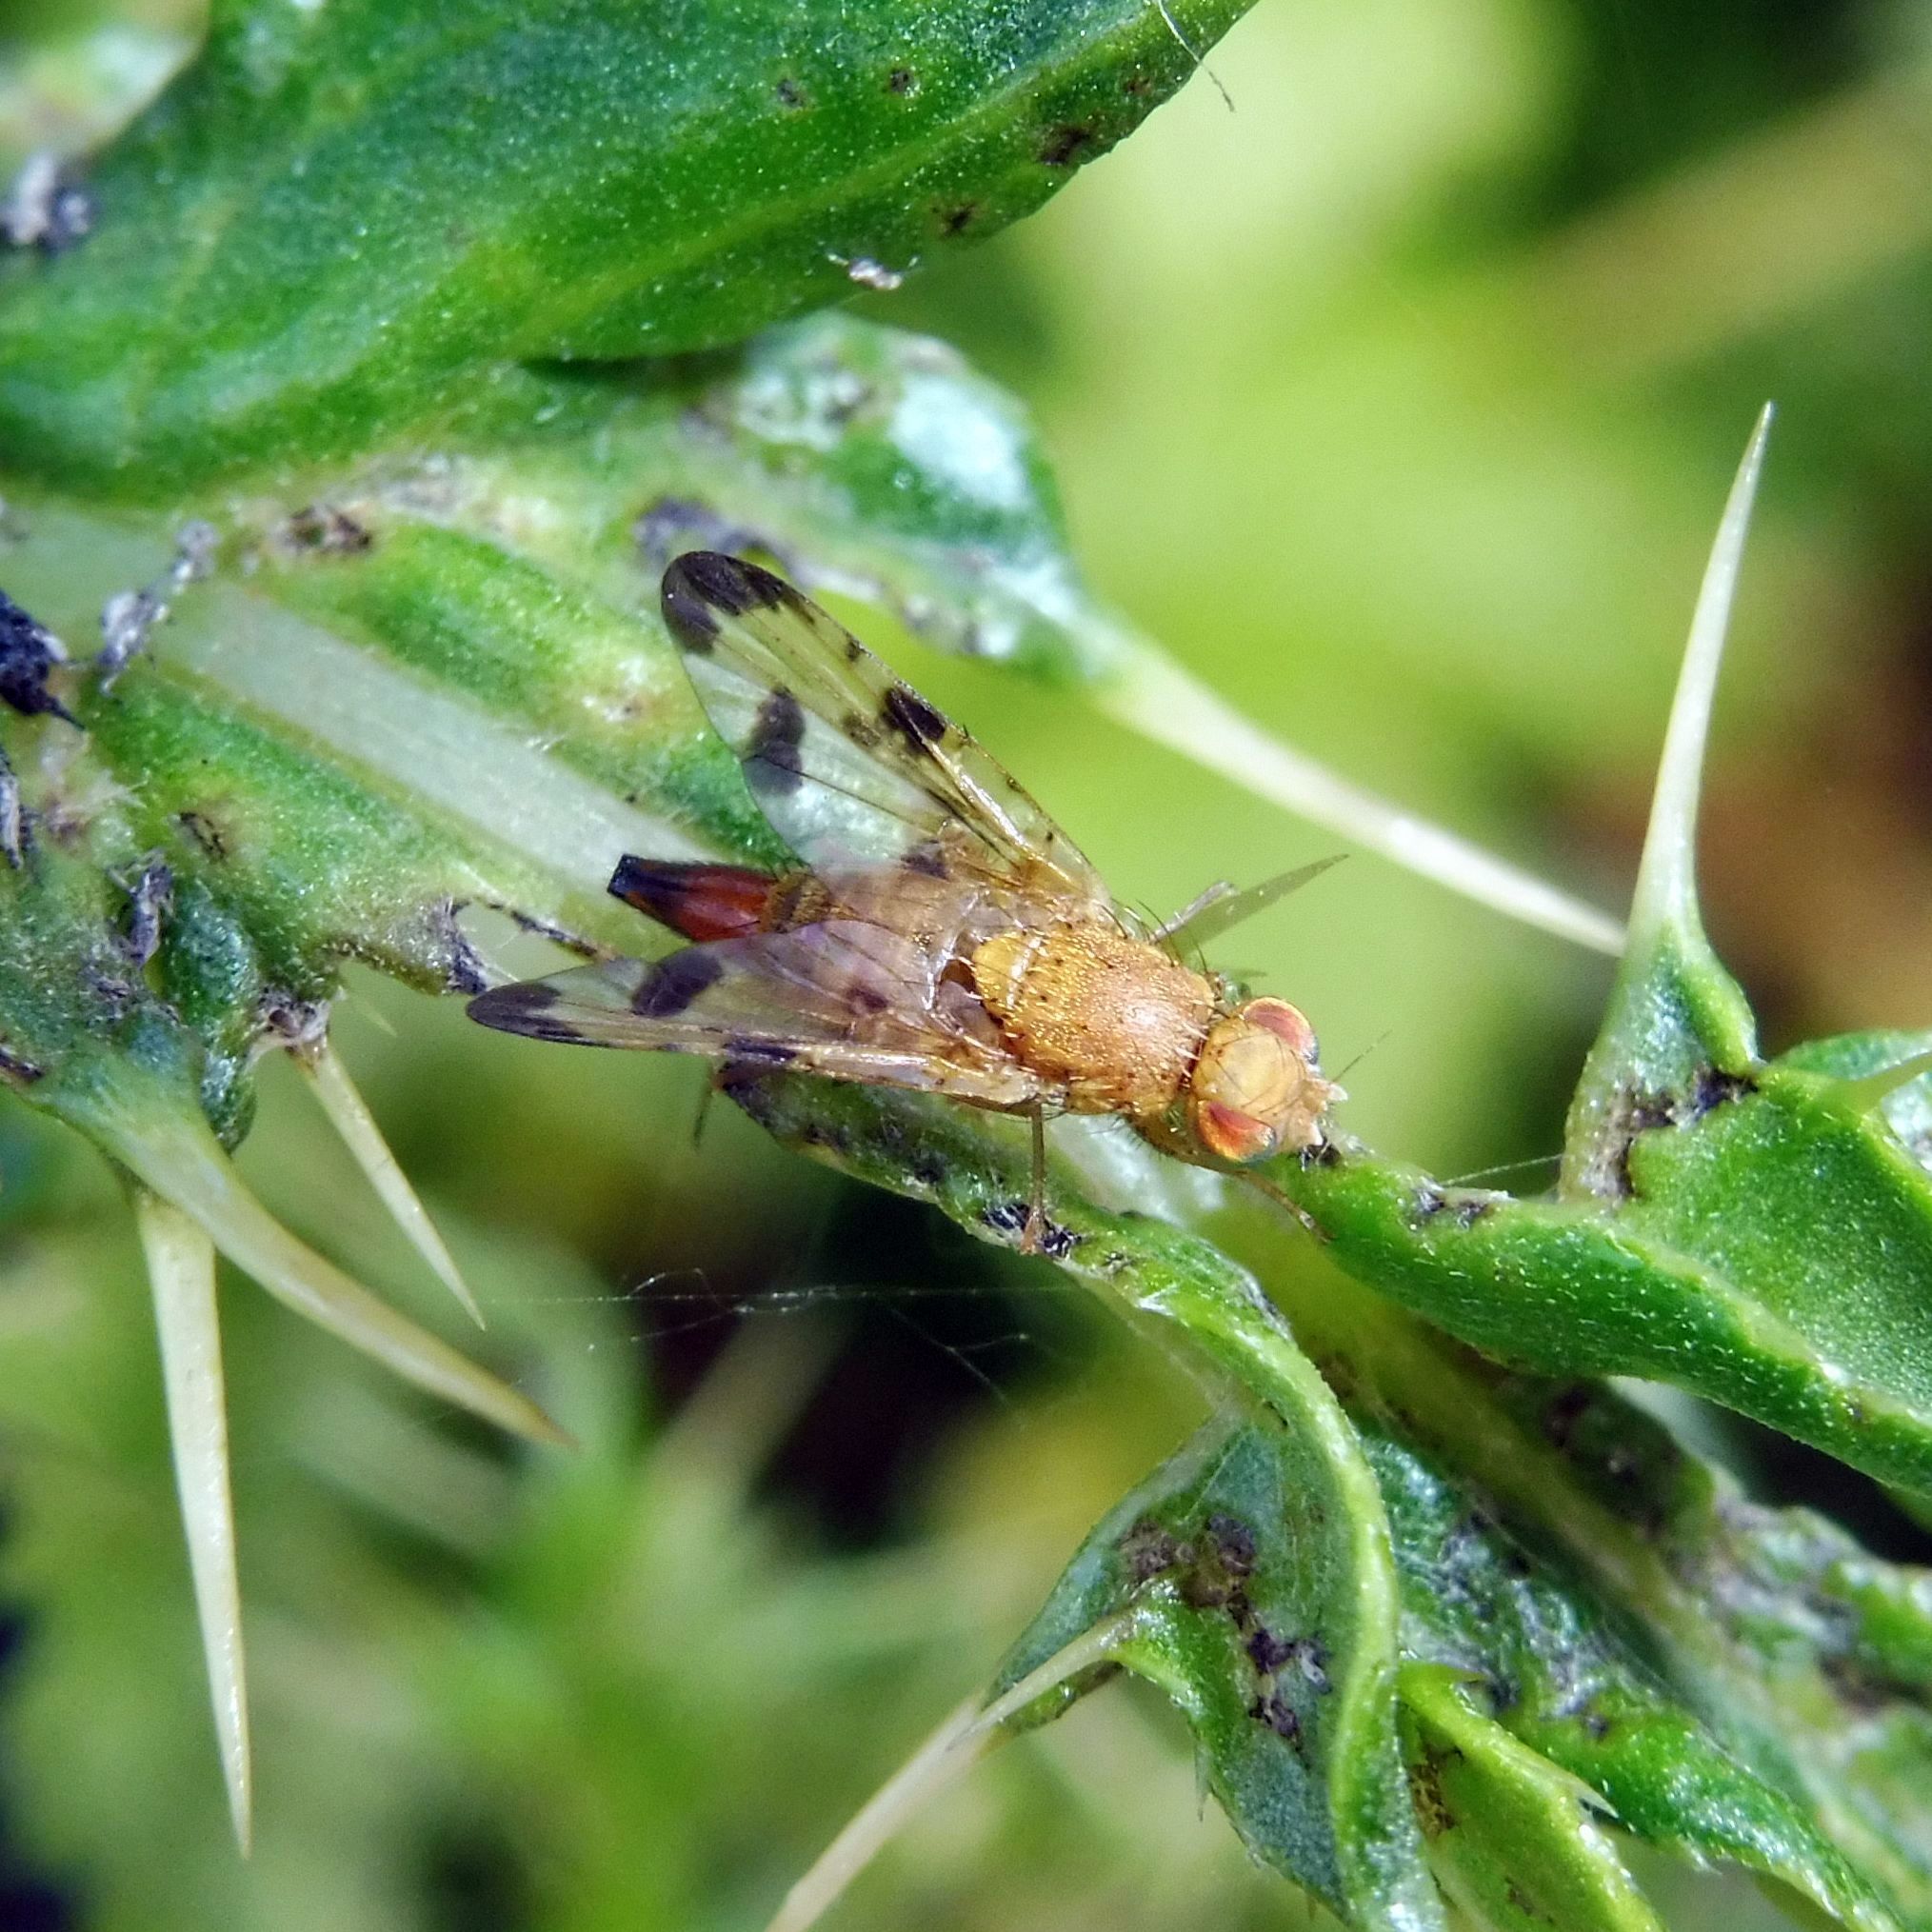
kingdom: Animalia
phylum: Arthropoda
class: Insecta
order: Diptera
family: Tephritidae
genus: Xyphosia
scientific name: Xyphosia miliaria
